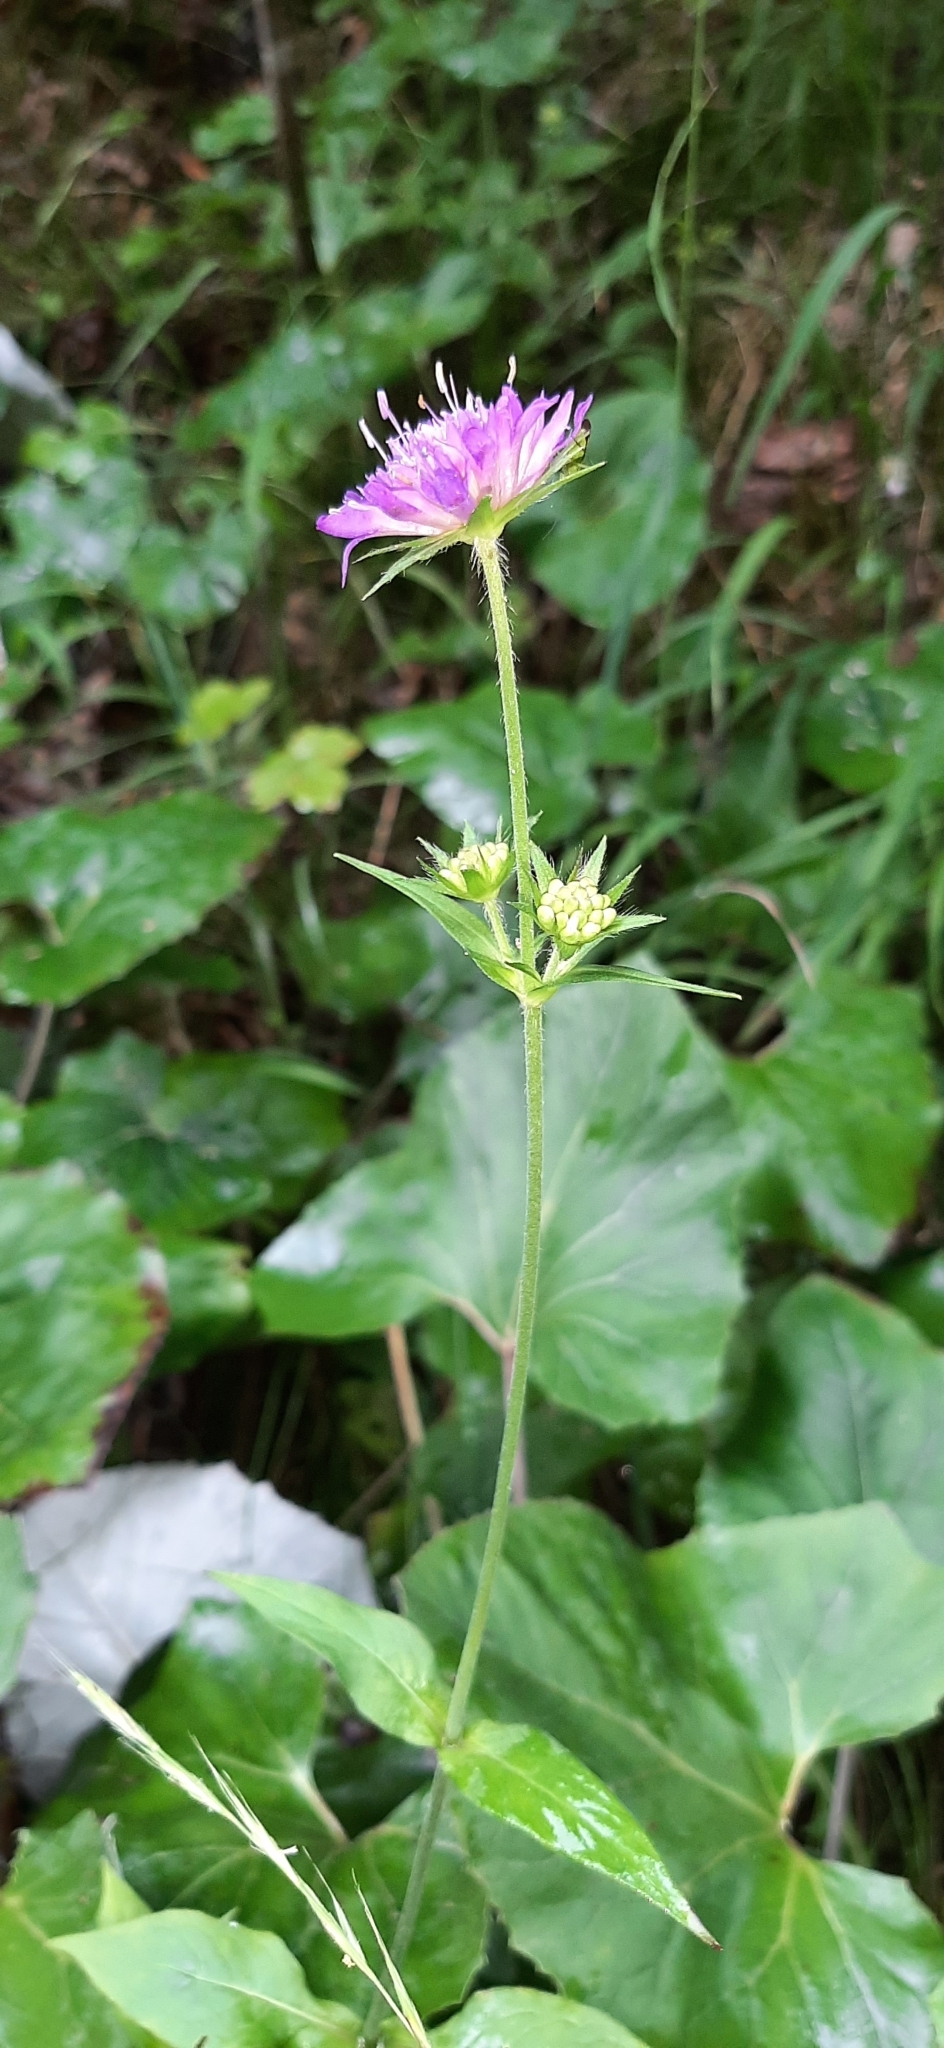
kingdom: Plantae
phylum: Tracheophyta
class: Magnoliopsida
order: Dipsacales
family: Caprifoliaceae
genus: Knautia
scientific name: Knautia dipsacifolia
